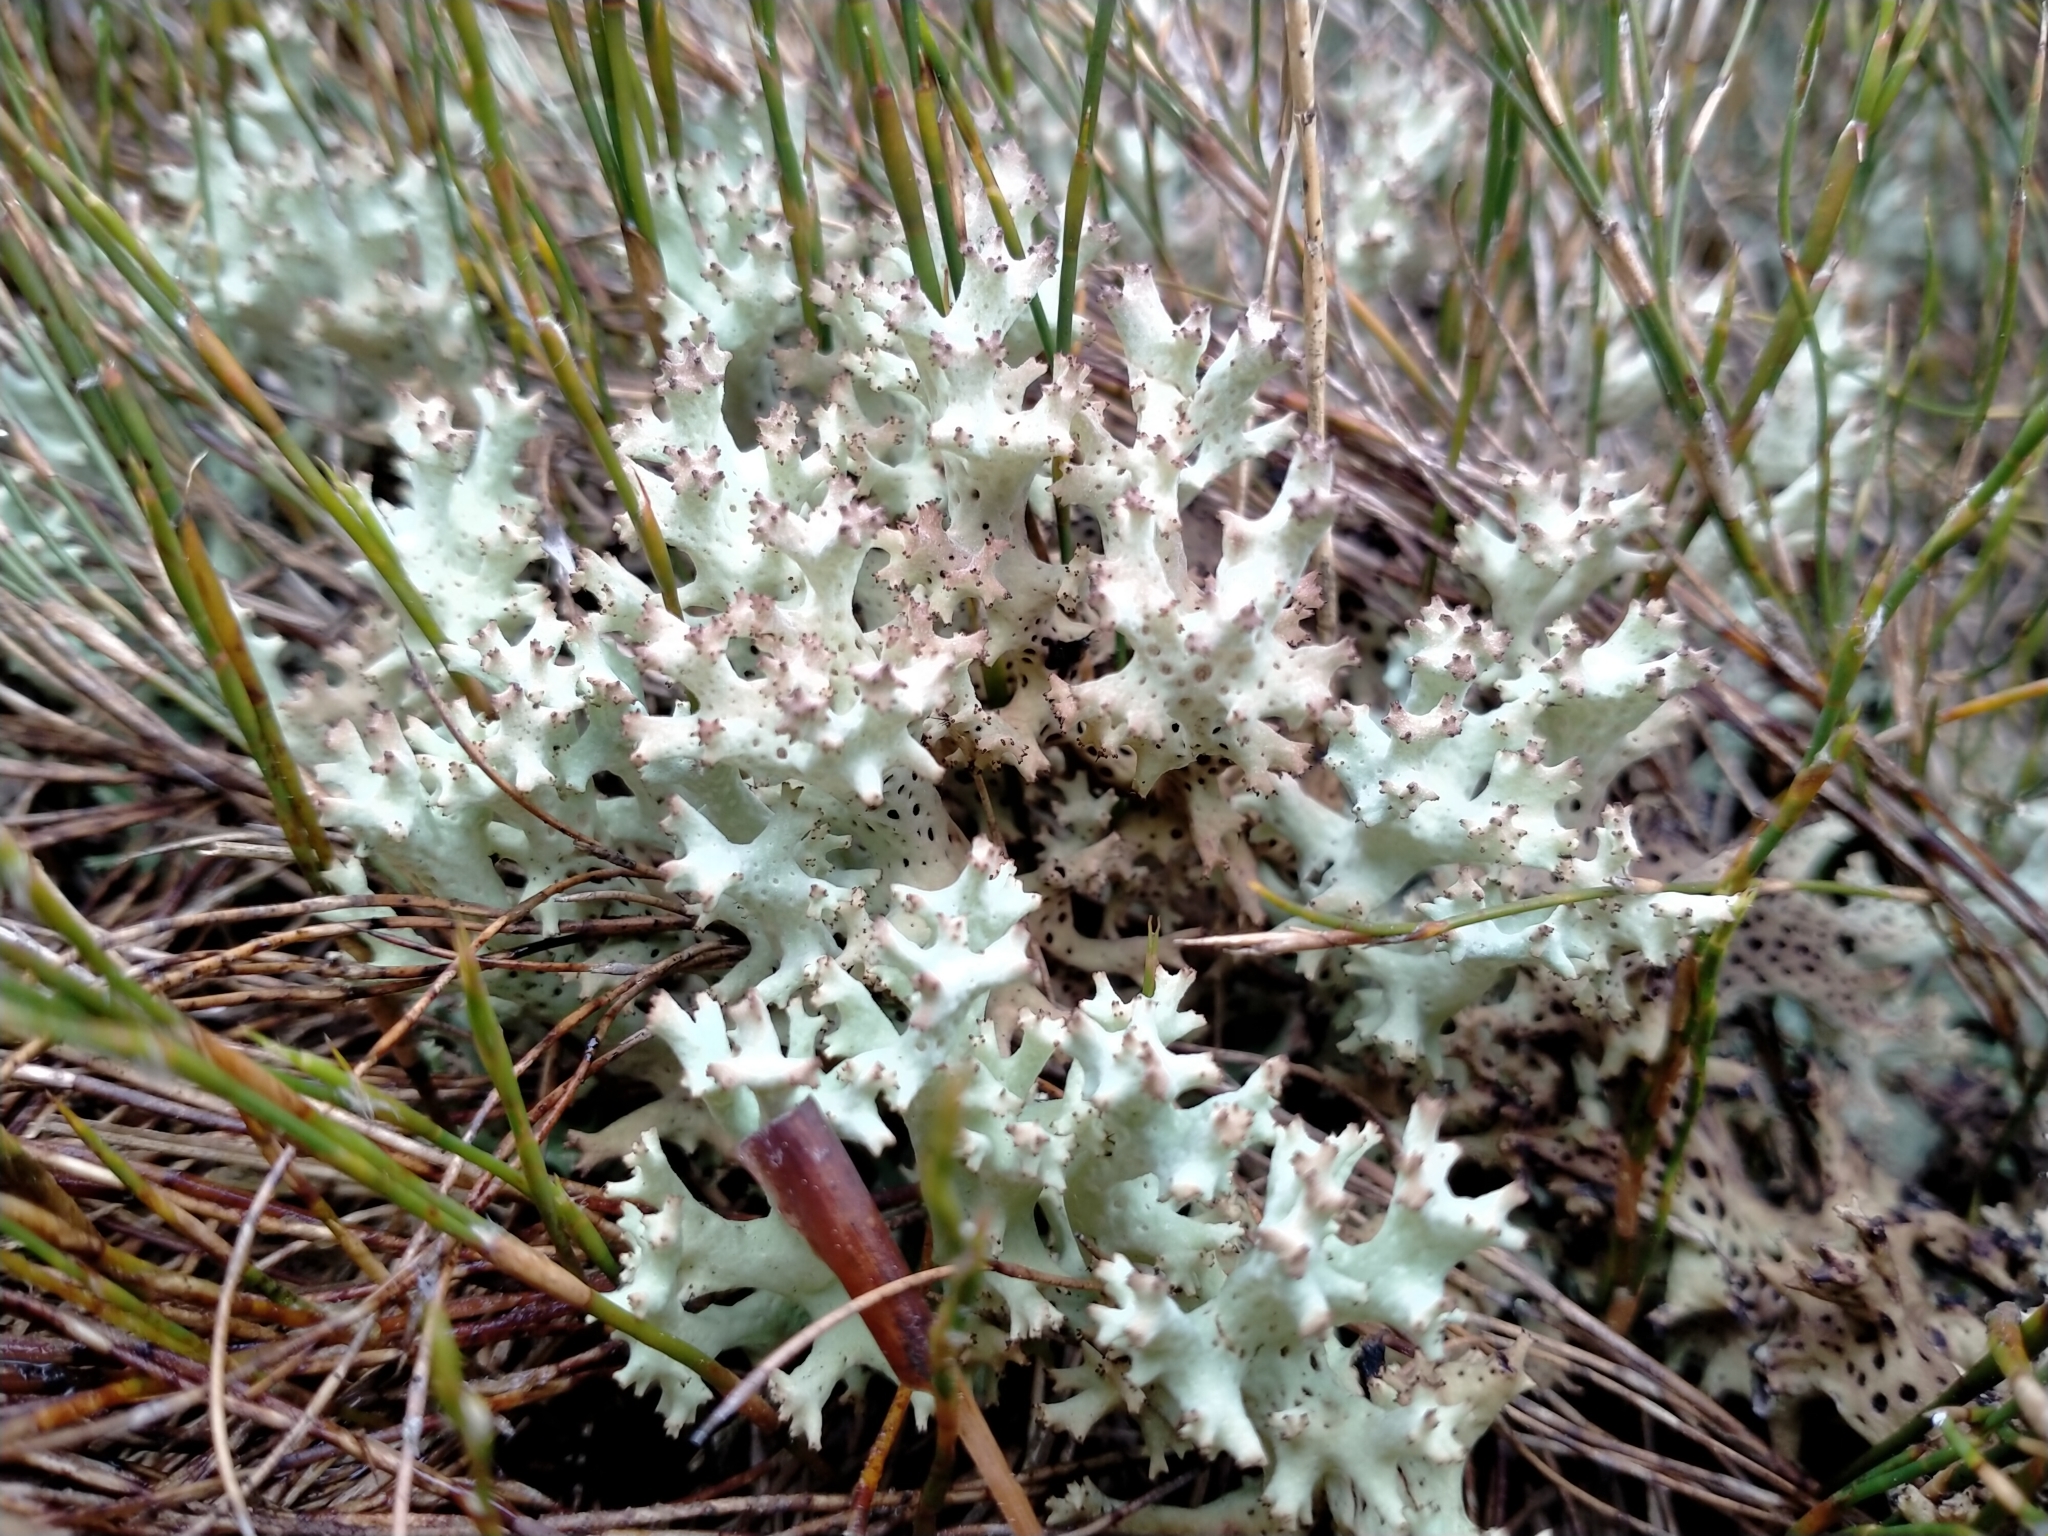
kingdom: Fungi
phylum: Ascomycota
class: Lecanoromycetes
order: Lecanorales
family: Cladoniaceae
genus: Rexiella
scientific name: Rexiella sullivanii
